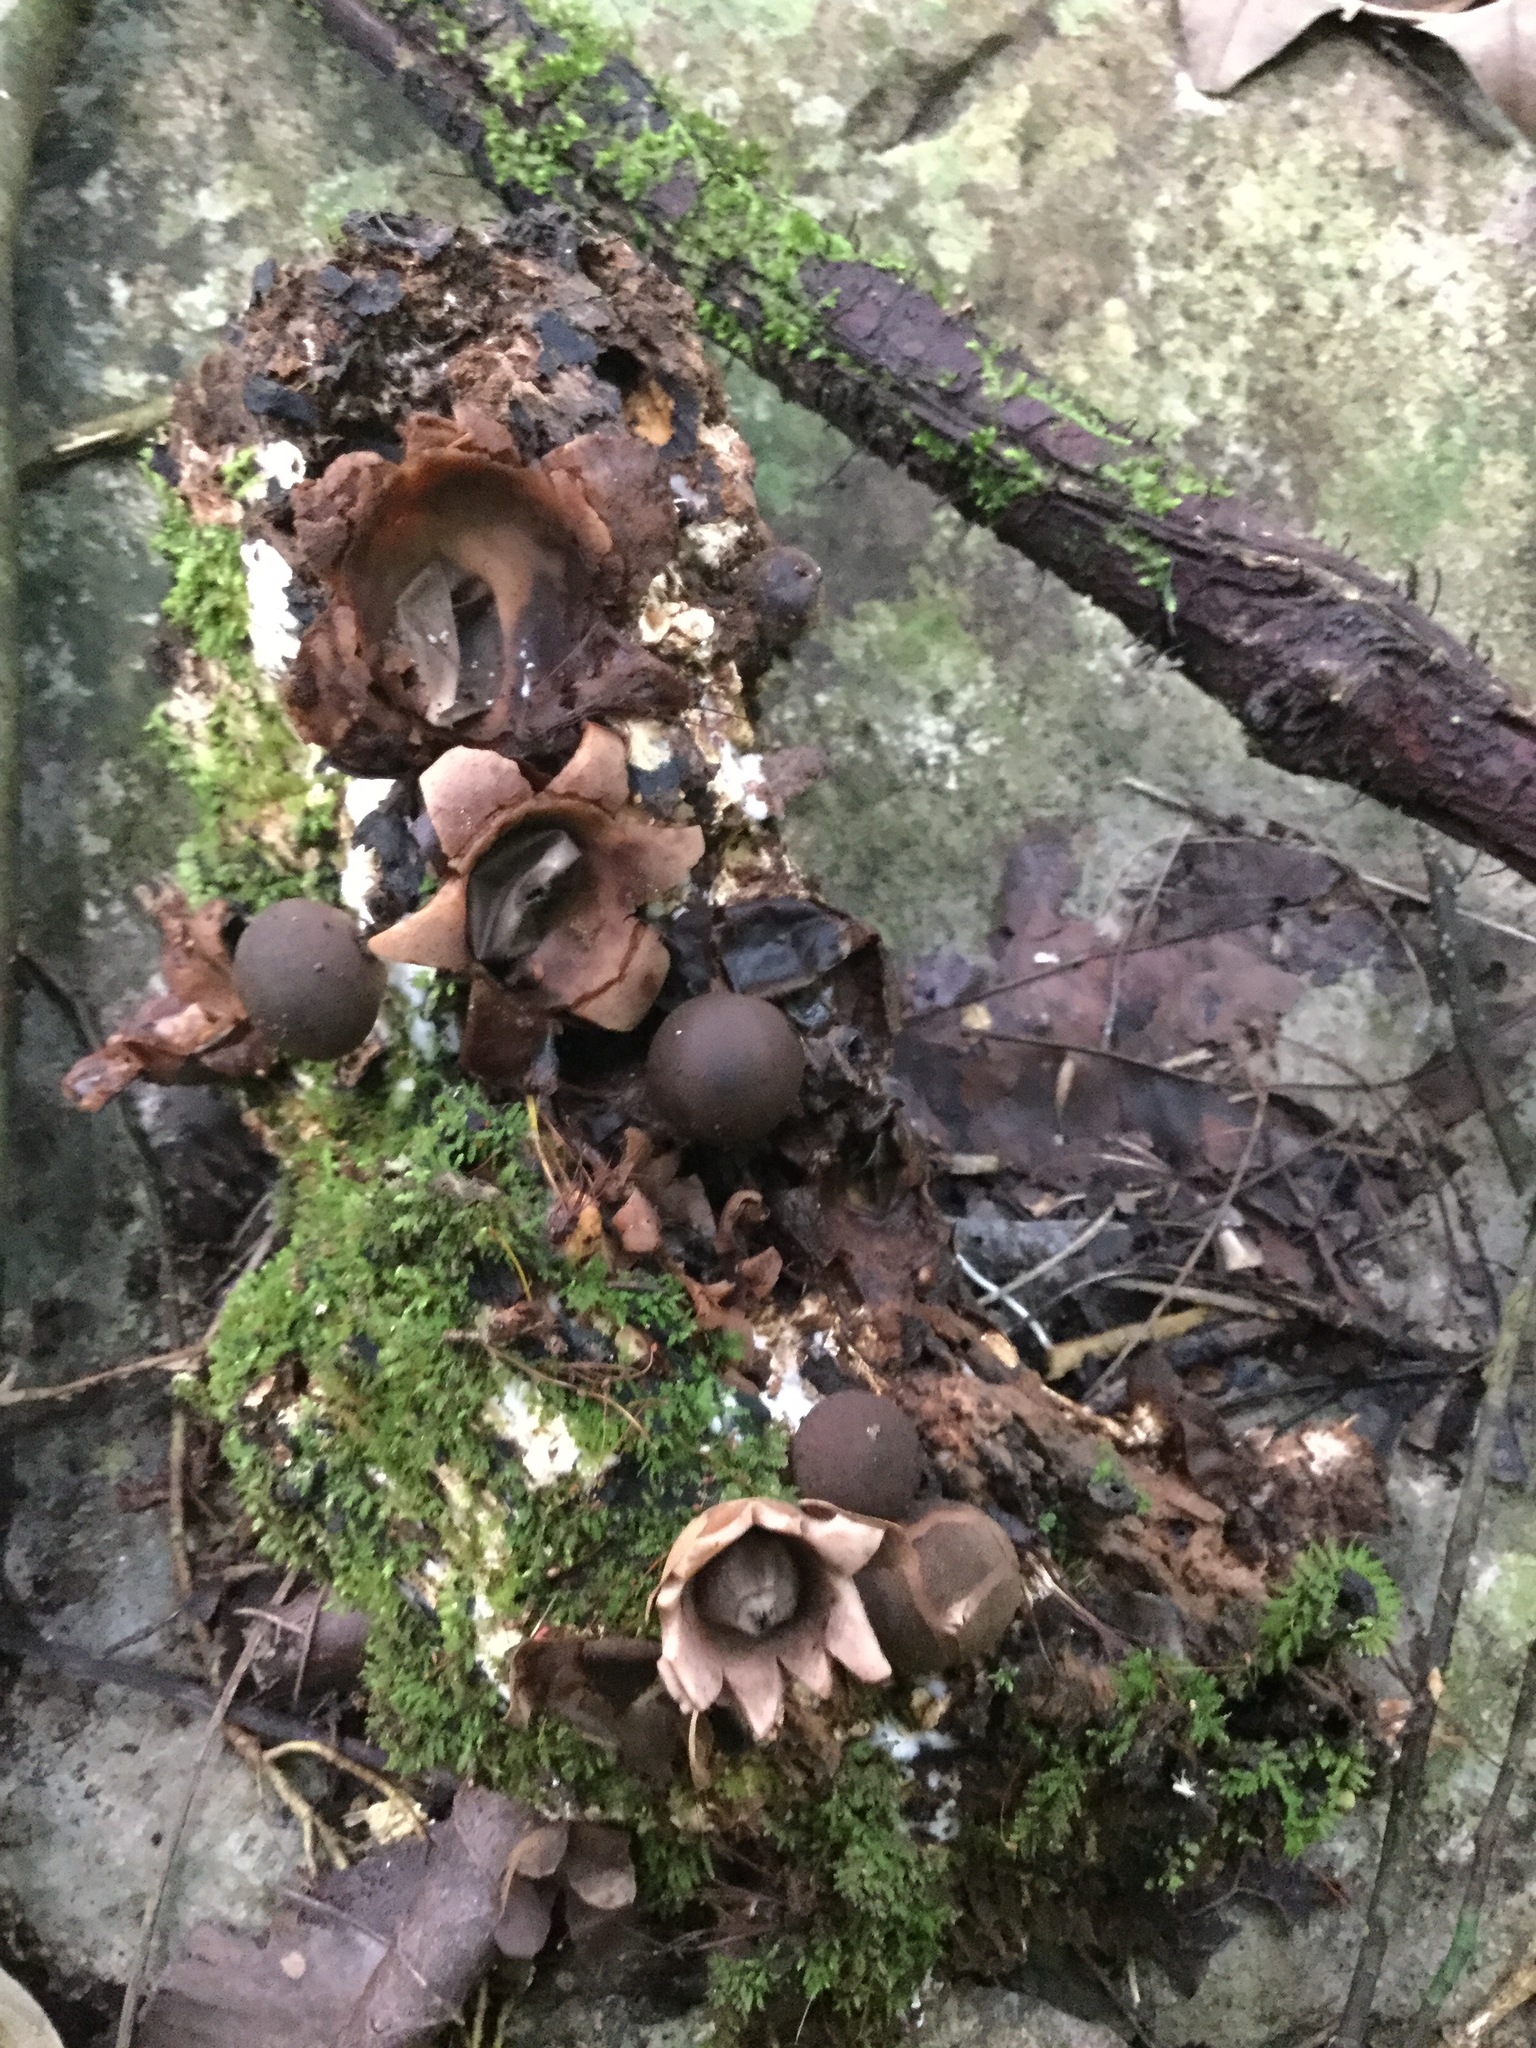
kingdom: Fungi
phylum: Basidiomycota
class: Agaricomycetes
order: Geastrales
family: Geastraceae
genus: Geastrum
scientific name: Geastrum saccatum
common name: Rounded earthstar
